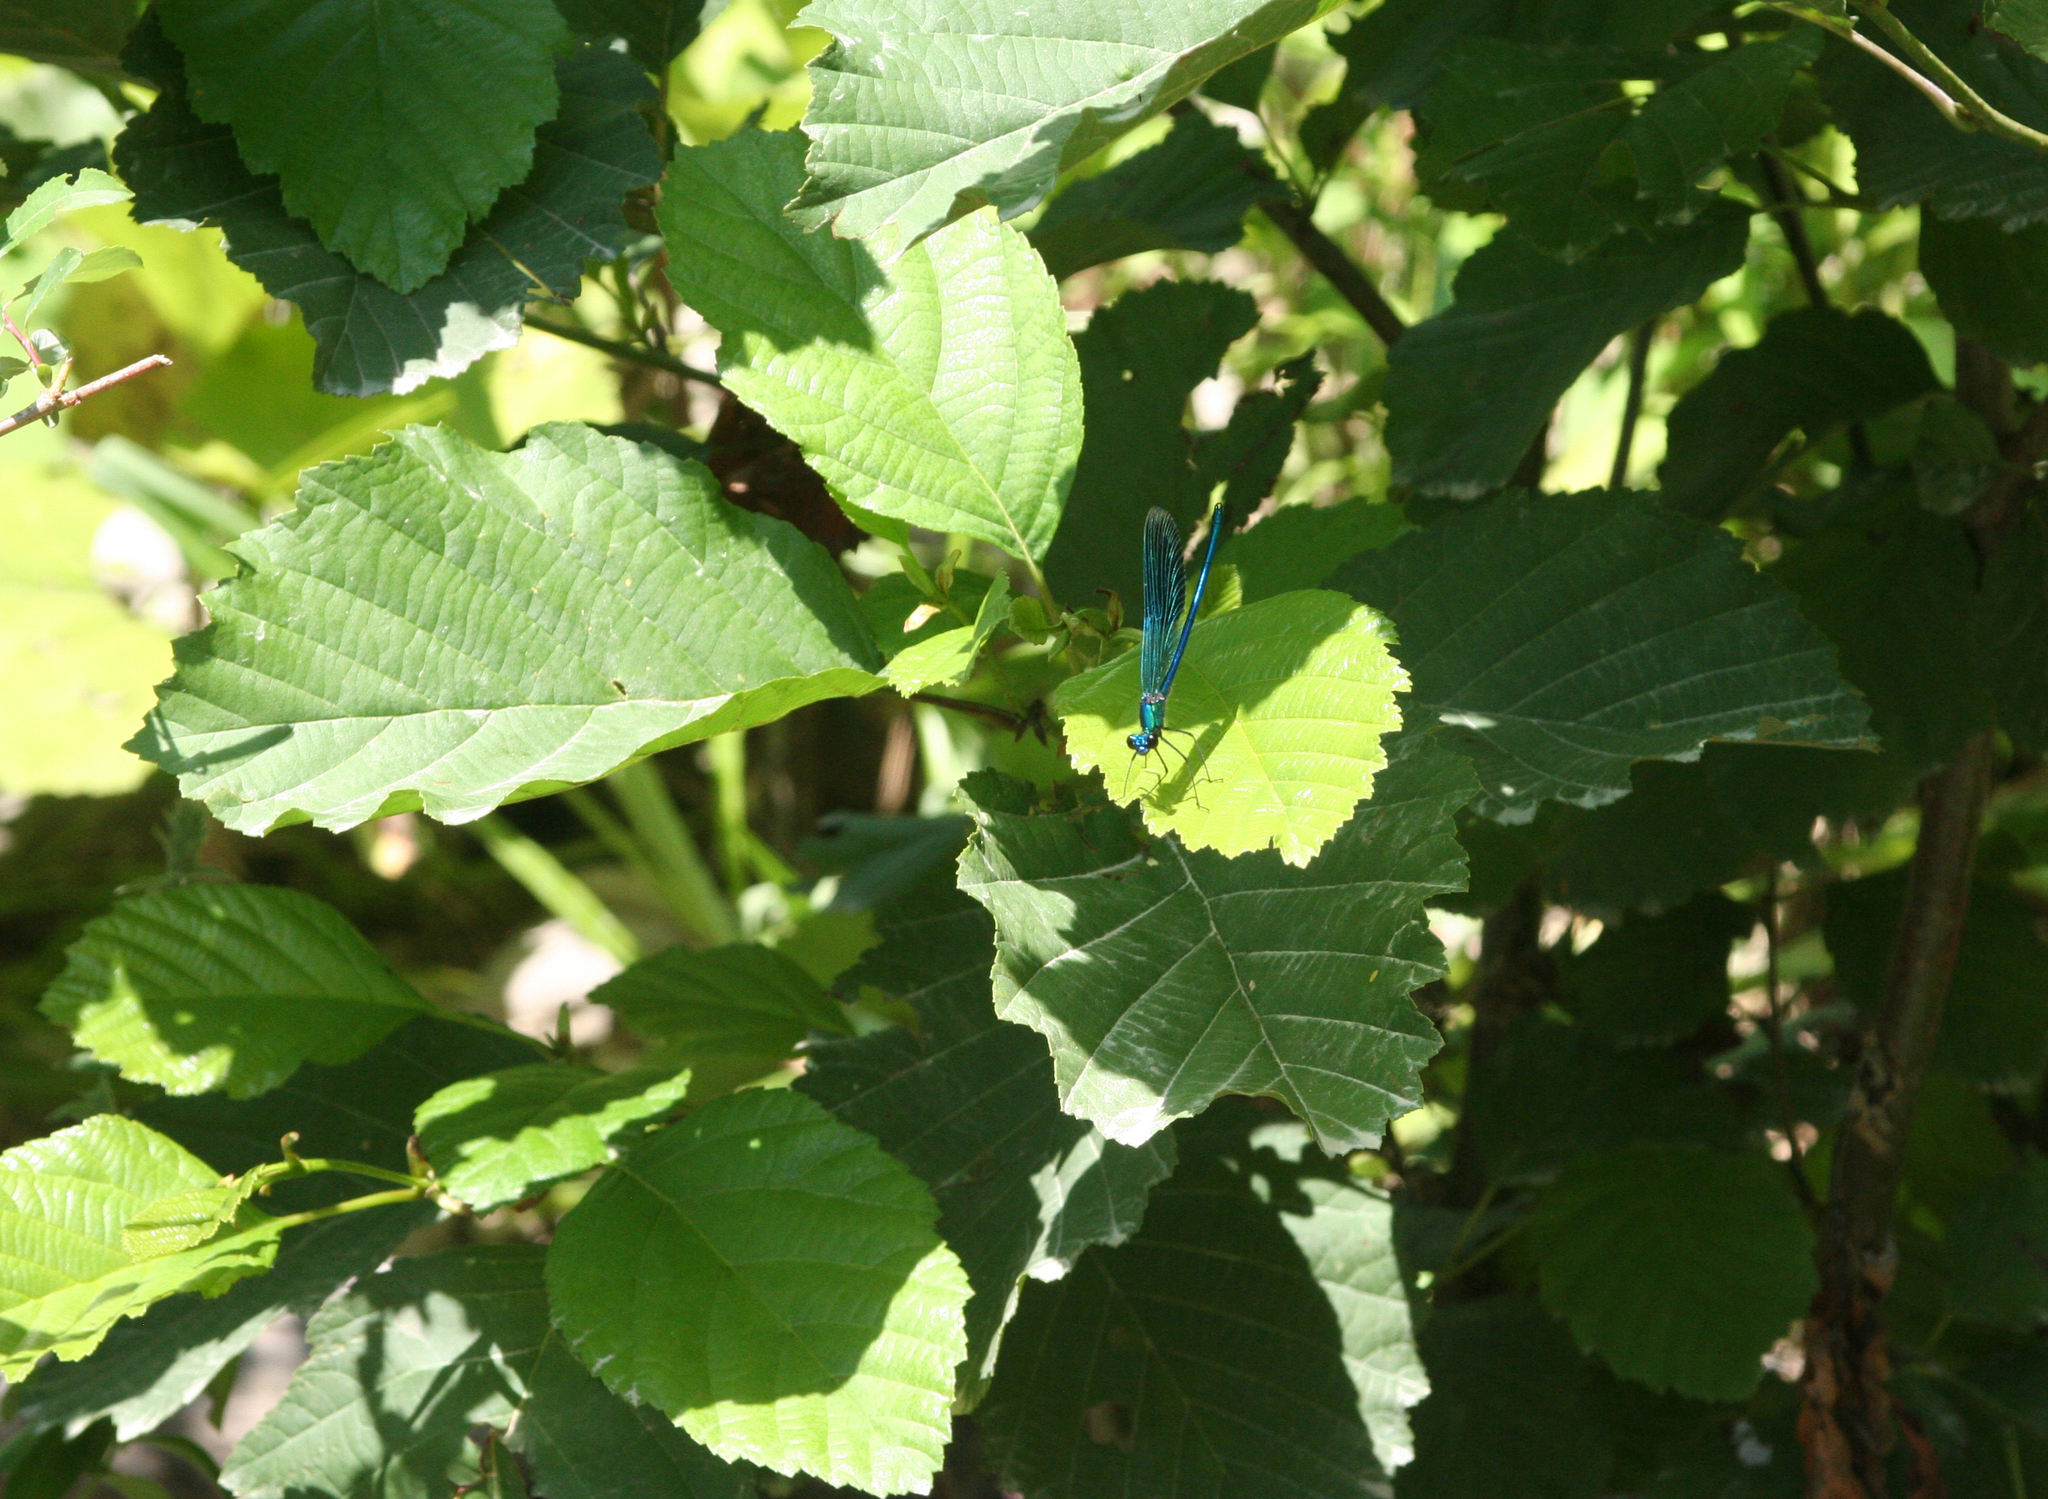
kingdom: Plantae
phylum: Tracheophyta
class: Magnoliopsida
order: Fagales
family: Betulaceae
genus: Alnus
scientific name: Alnus incana
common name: Grey alder
